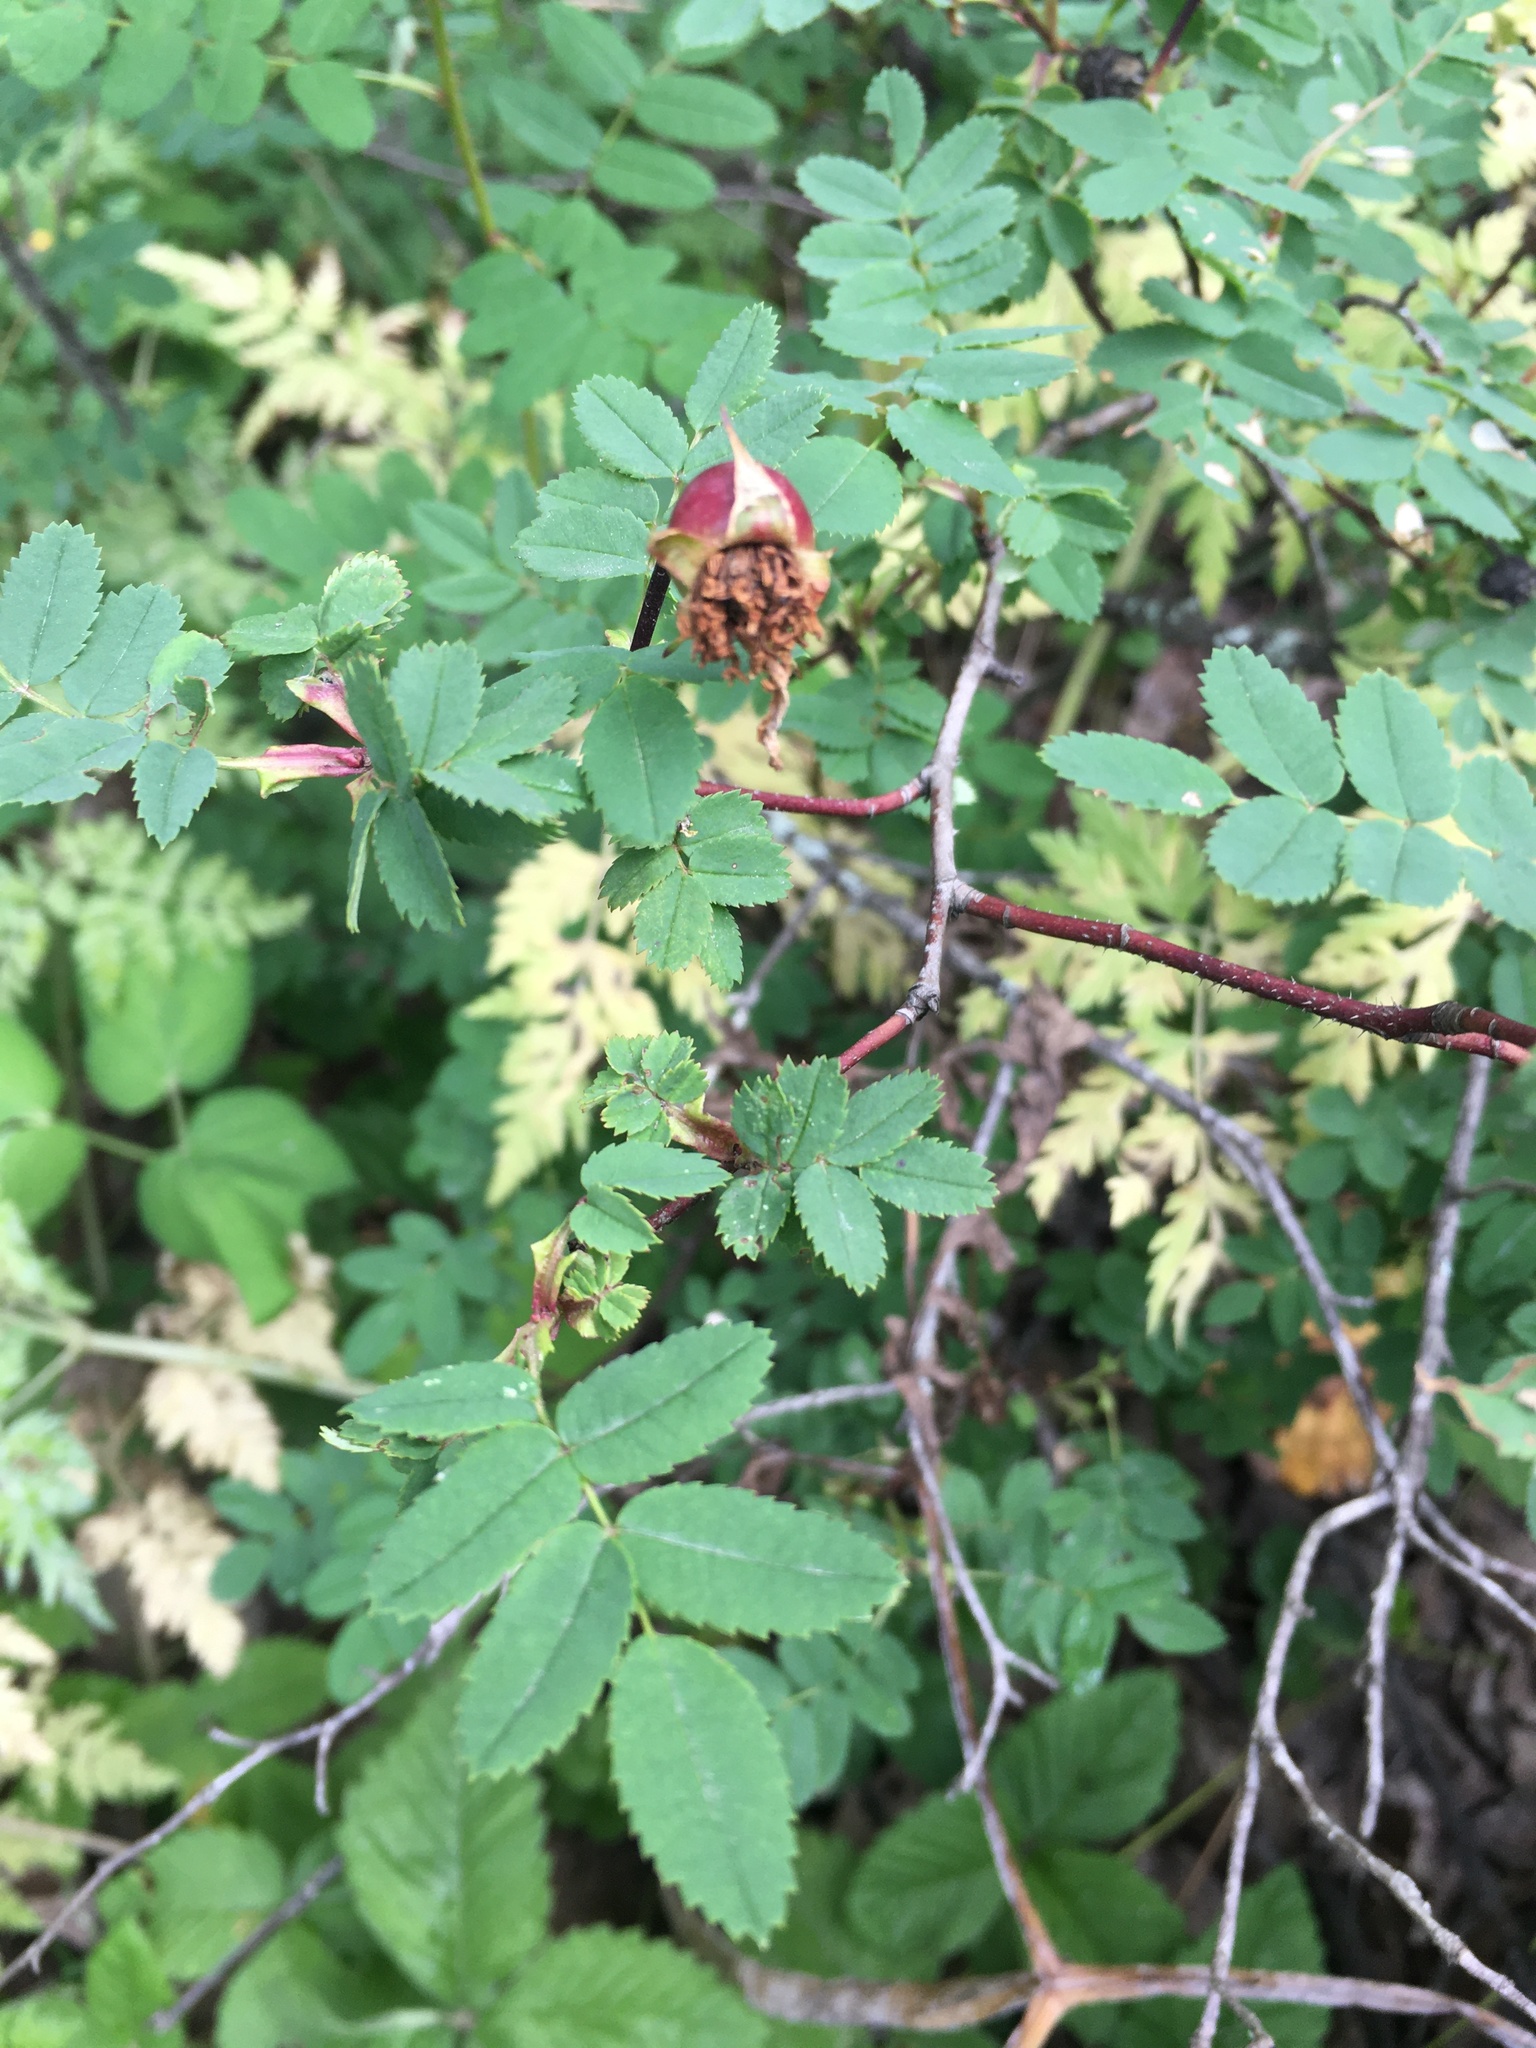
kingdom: Plantae
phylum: Tracheophyta
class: Magnoliopsida
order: Rosales
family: Rosaceae
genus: Rosa
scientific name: Rosa spinosissima
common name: Burnet rose
